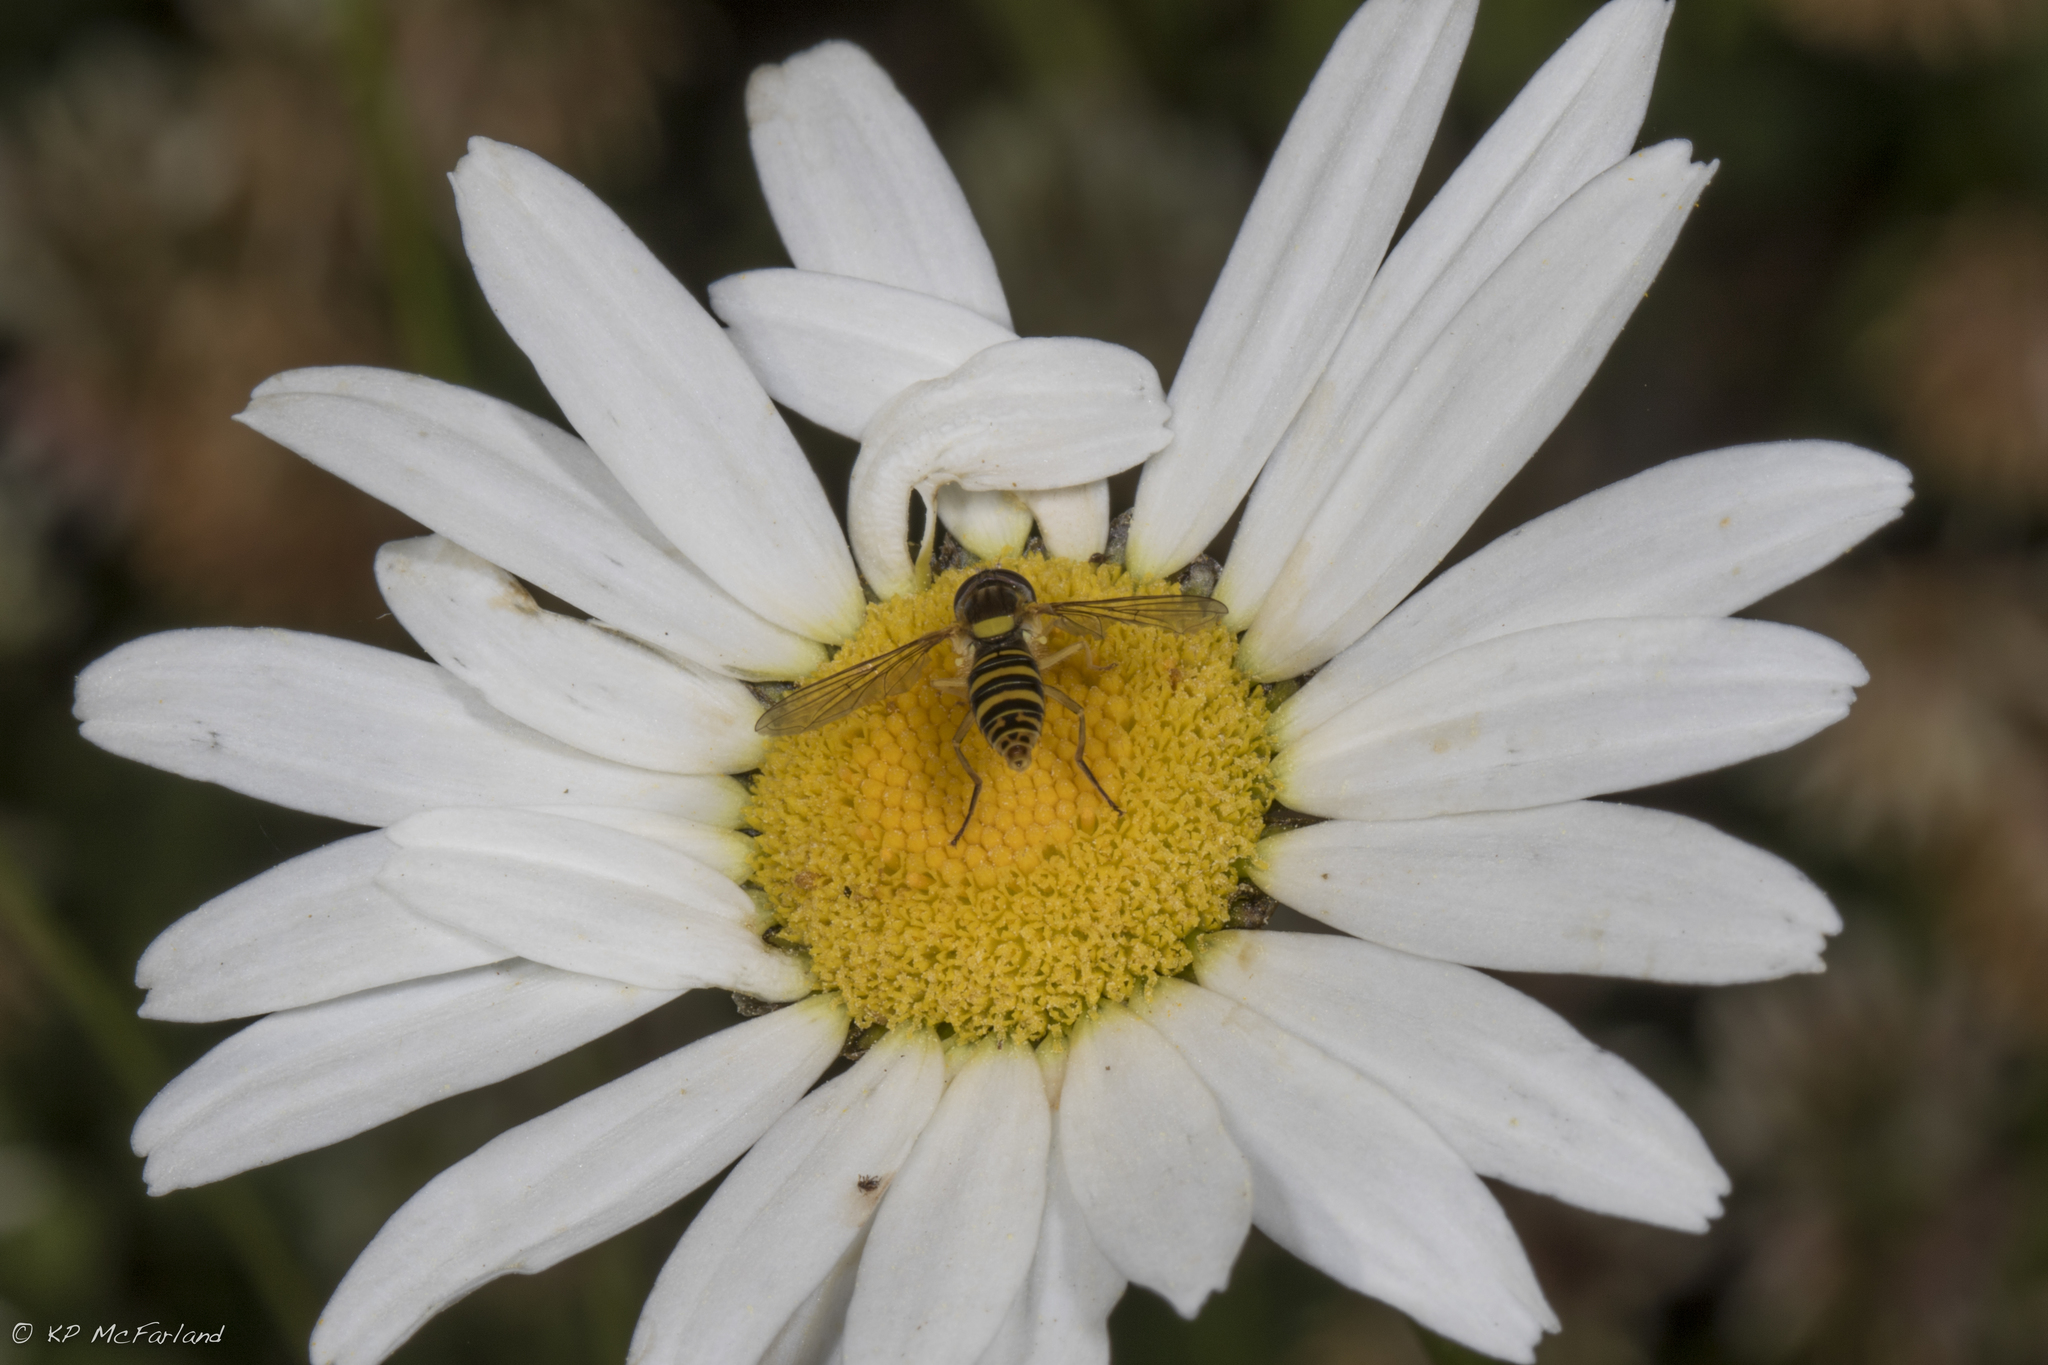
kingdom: Animalia
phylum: Arthropoda
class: Insecta
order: Diptera
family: Syrphidae
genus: Sphaerophoria
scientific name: Sphaerophoria
